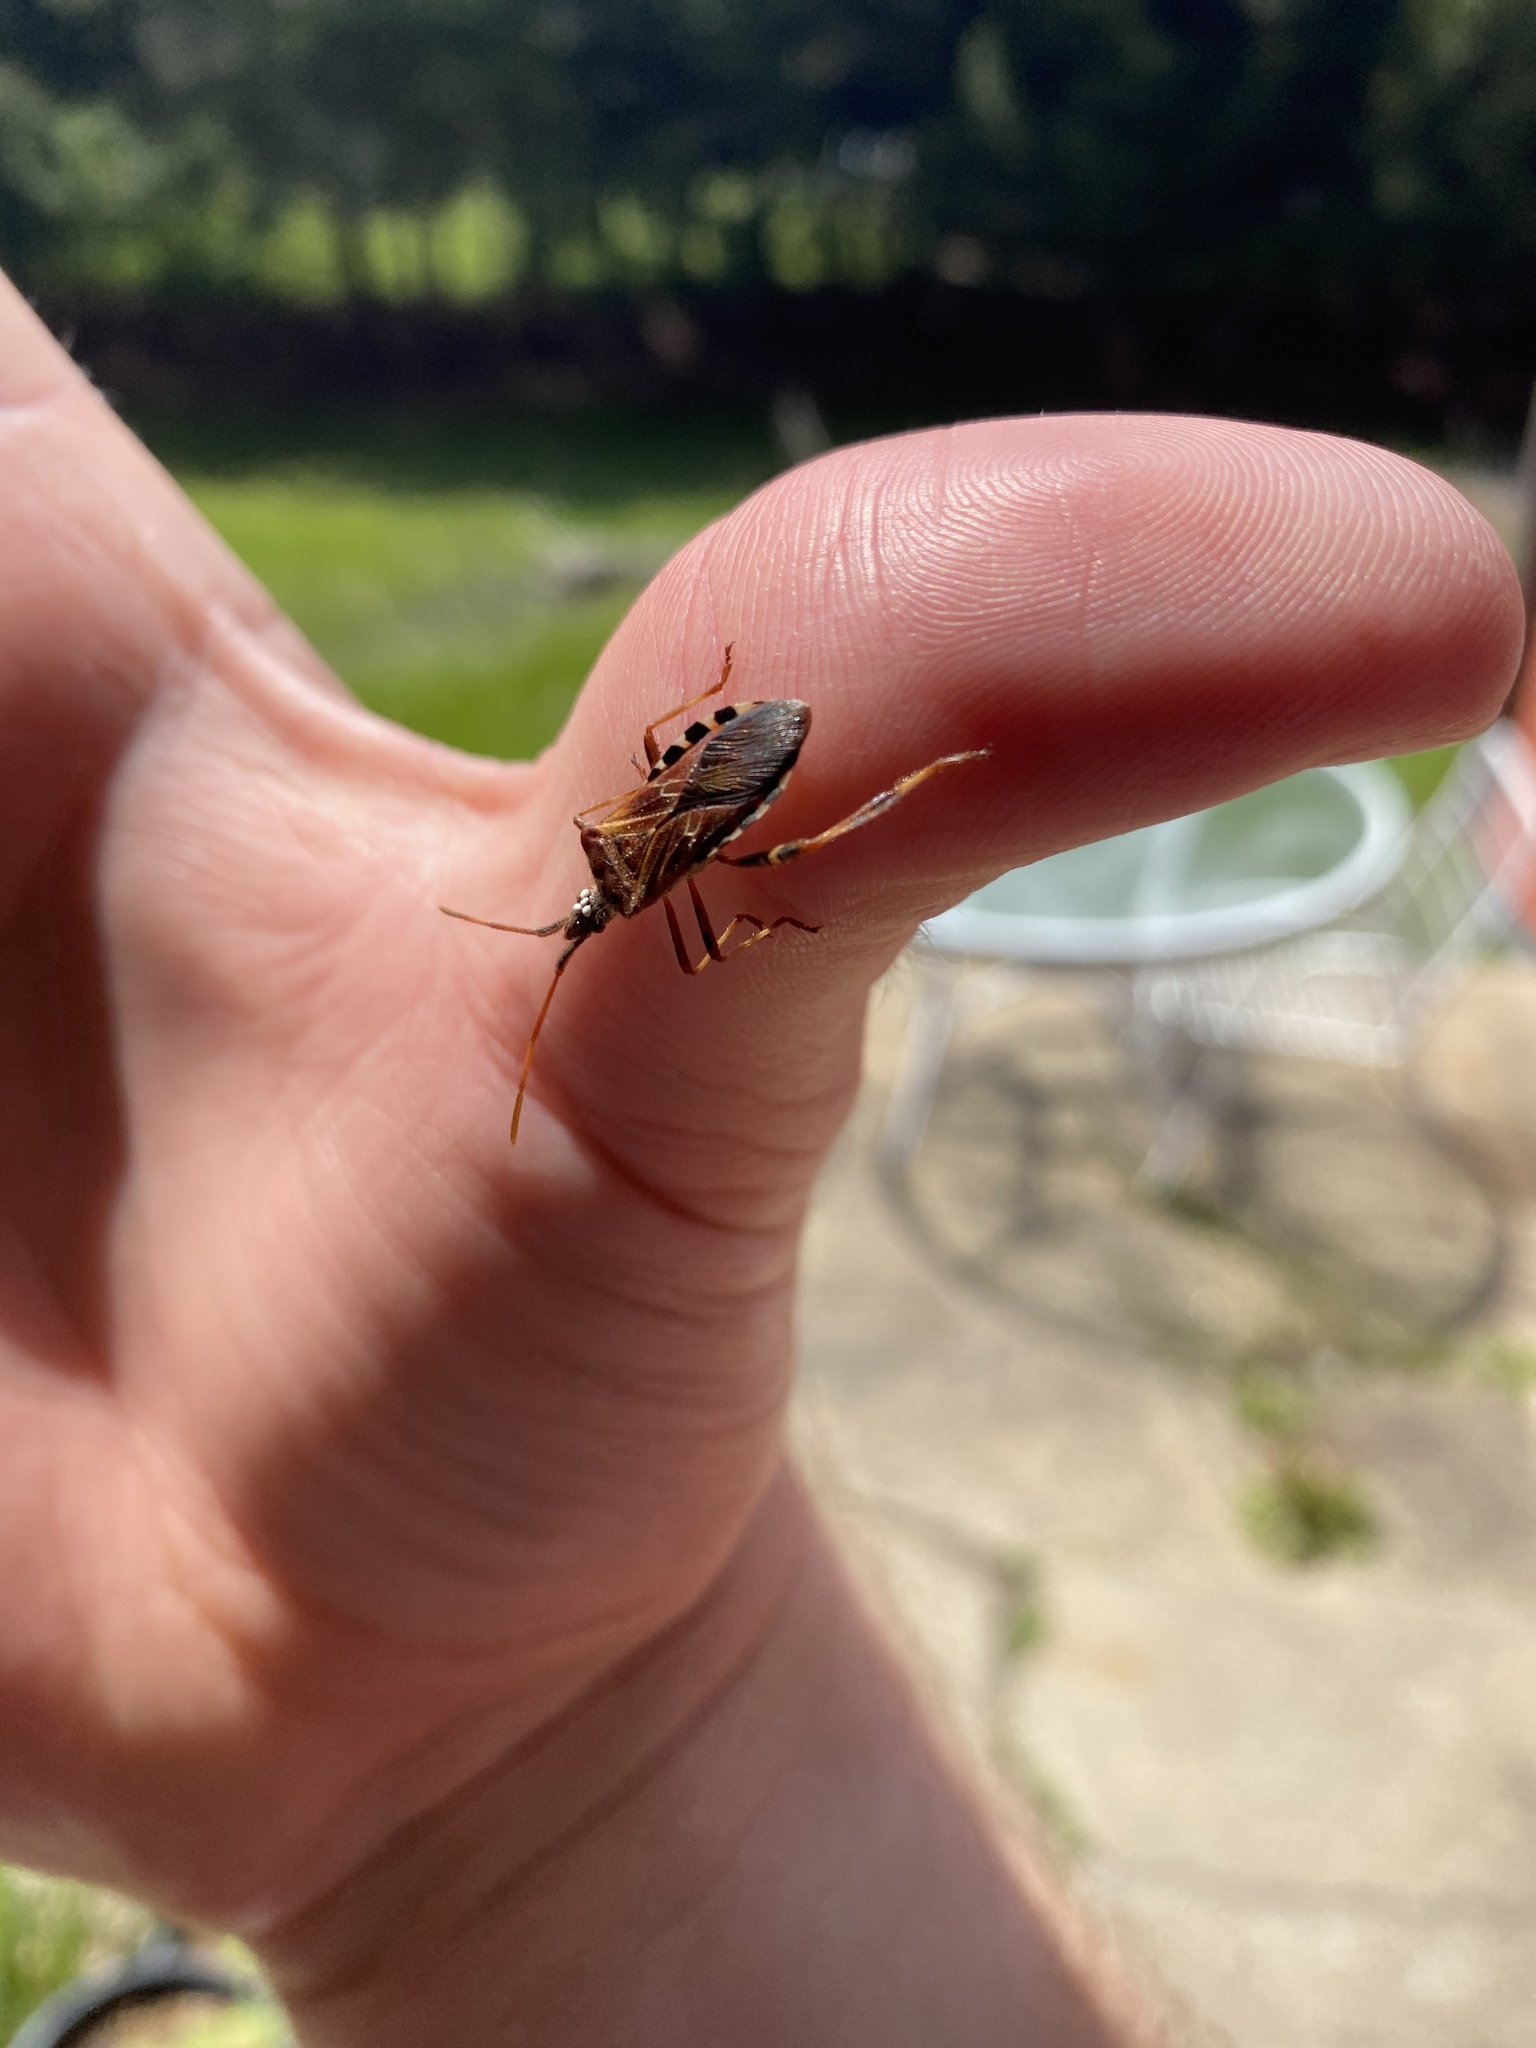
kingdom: Animalia
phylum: Arthropoda
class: Insecta
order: Hemiptera
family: Coreidae
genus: Leptoglossus
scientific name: Leptoglossus occidentalis
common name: Western conifer-seed bug
